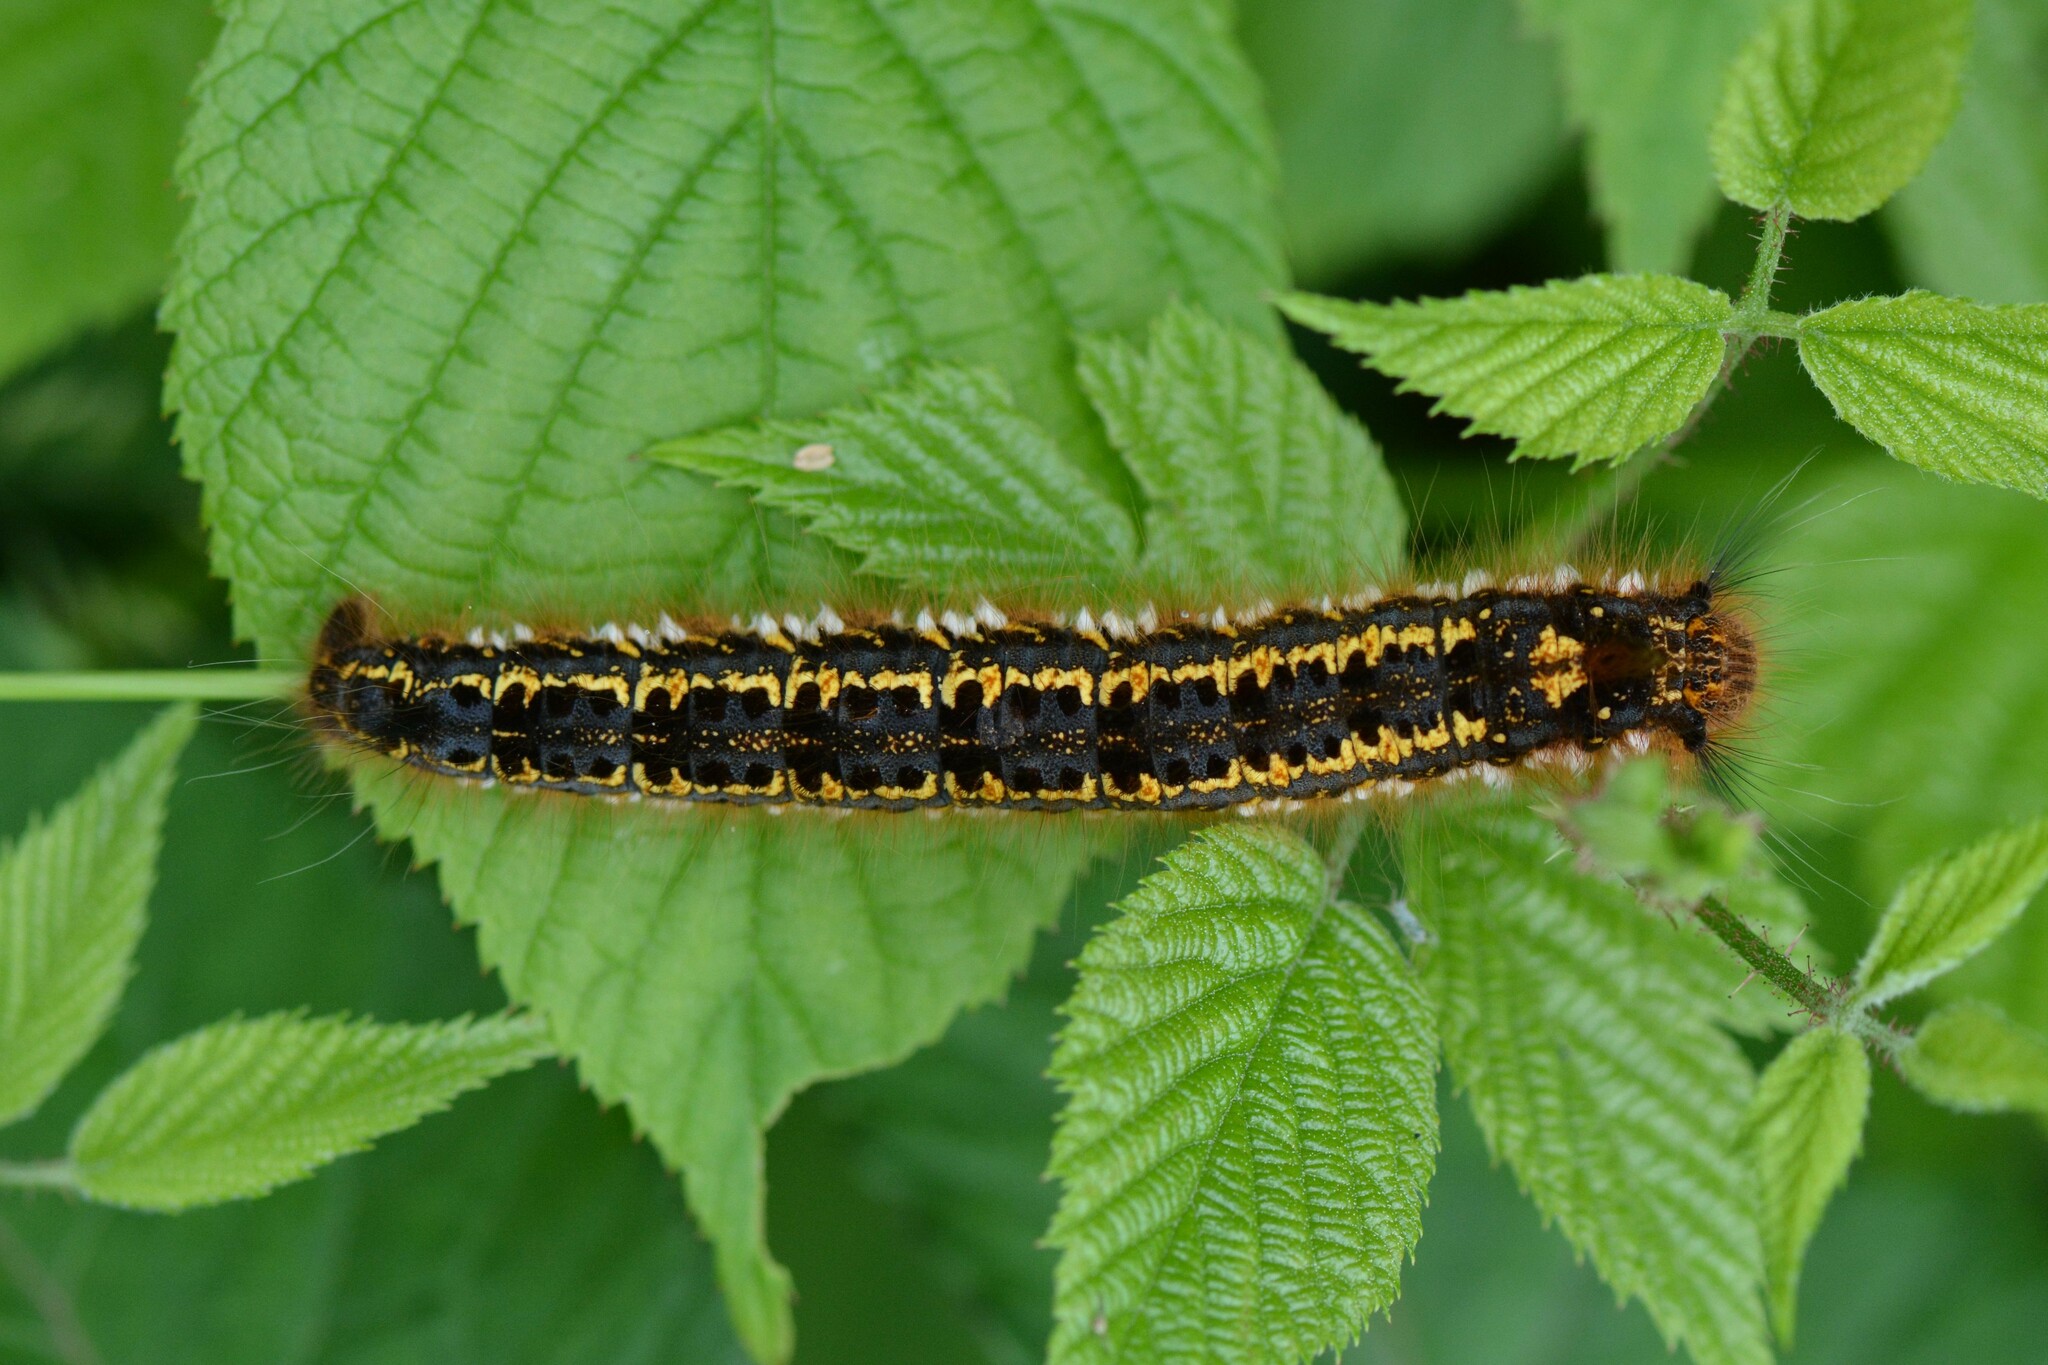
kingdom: Animalia
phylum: Arthropoda
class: Insecta
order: Lepidoptera
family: Lasiocampidae
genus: Euthrix
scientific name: Euthrix potatoria
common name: Drinker
